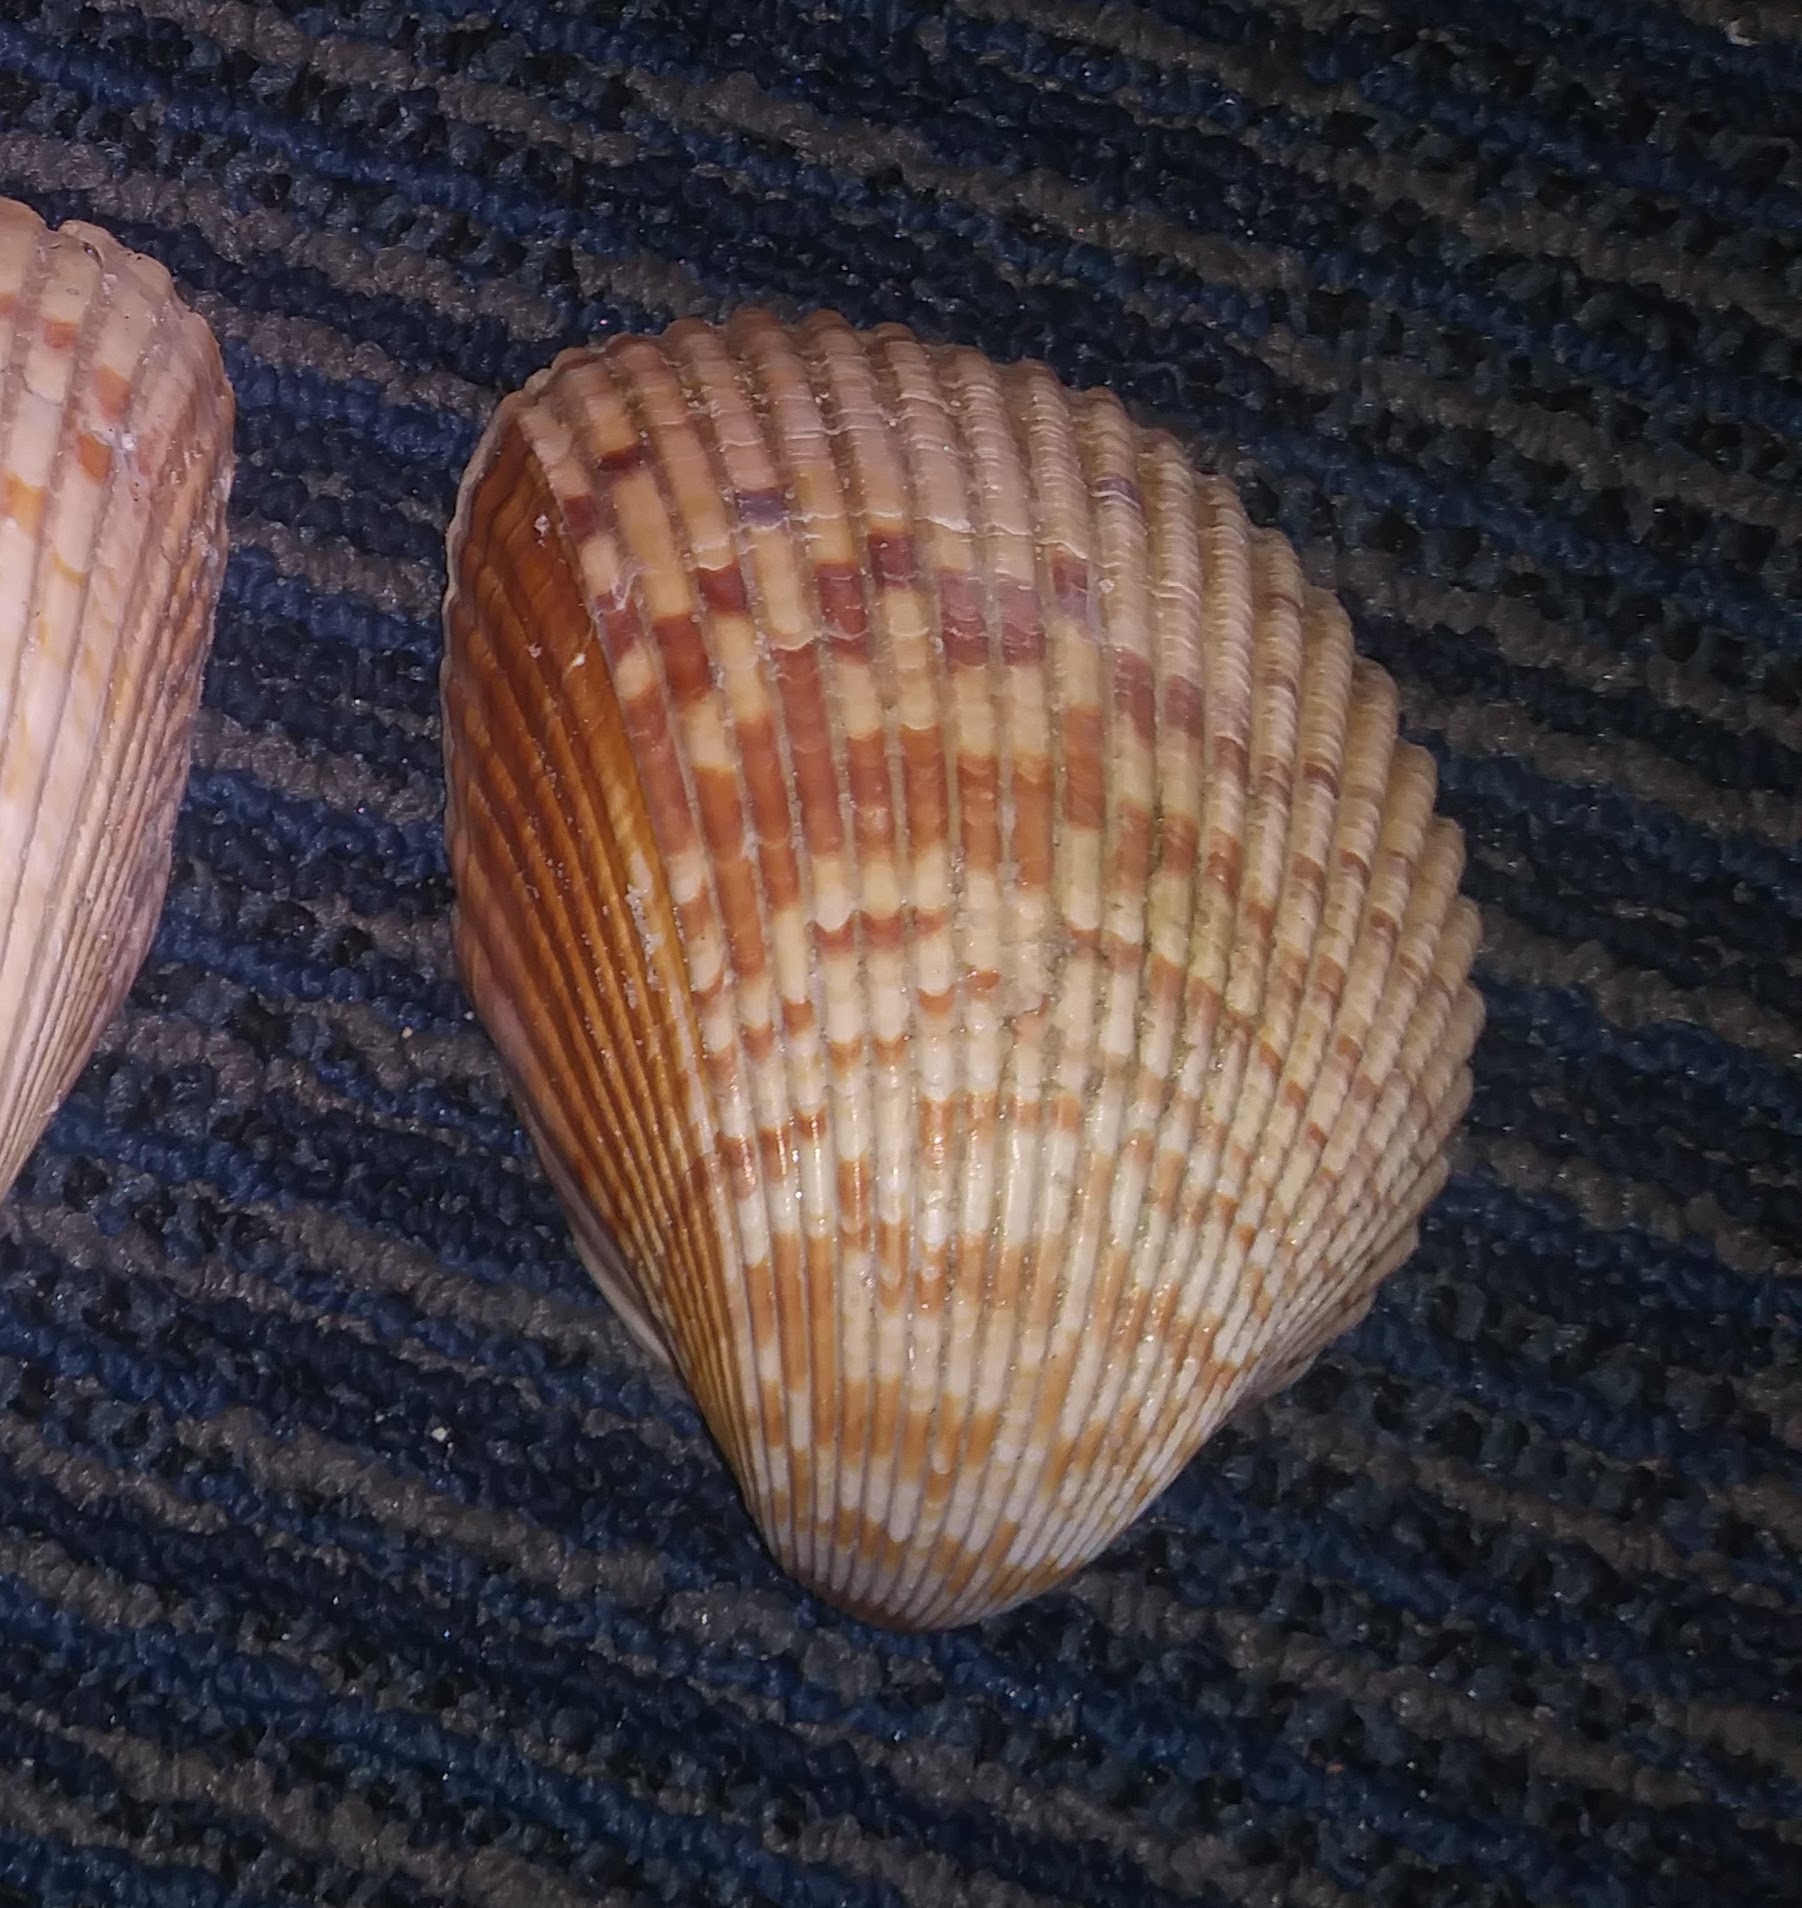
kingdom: Animalia
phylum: Mollusca
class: Bivalvia
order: Cardiida
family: Cardiidae
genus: Dinocardium
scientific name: Dinocardium robustum
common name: Atlantic giant cockle
